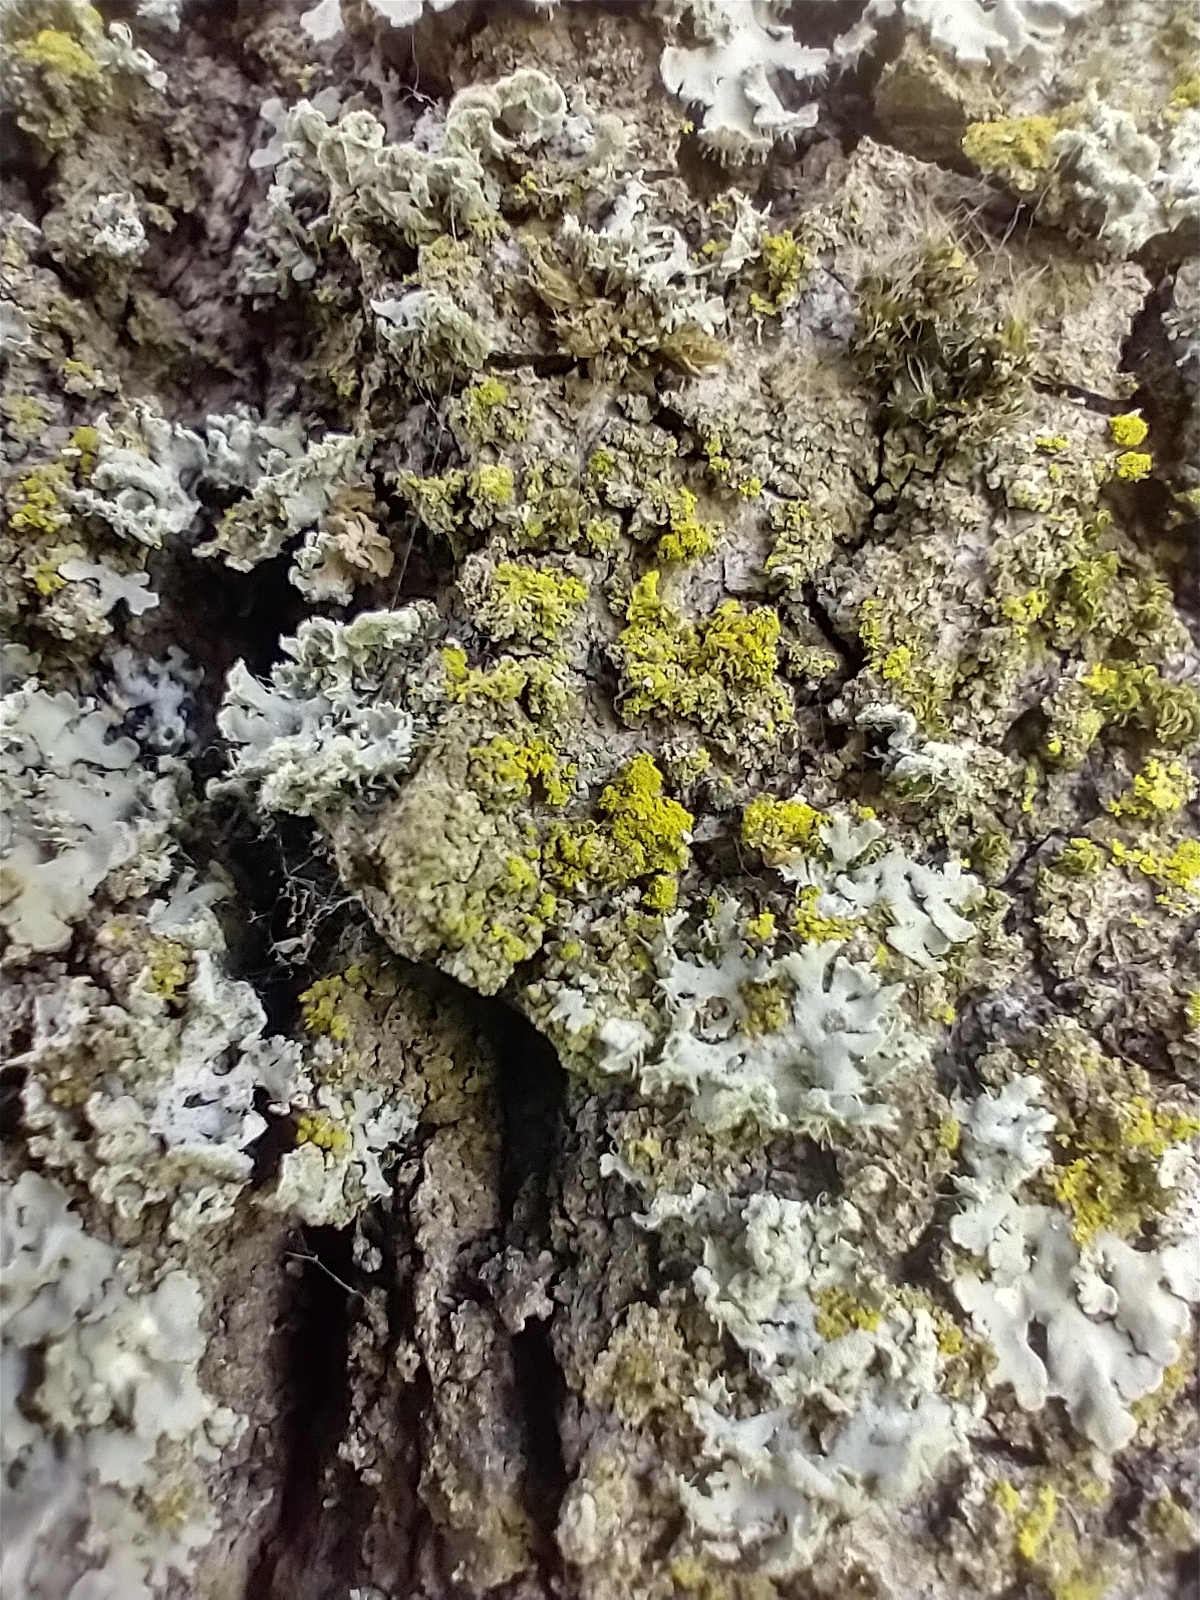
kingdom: Fungi
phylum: Ascomycota
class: Candelariomycetes
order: Candelariales
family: Candelariaceae
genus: Candelaria
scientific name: Candelaria concolor
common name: Candleflame lichen
